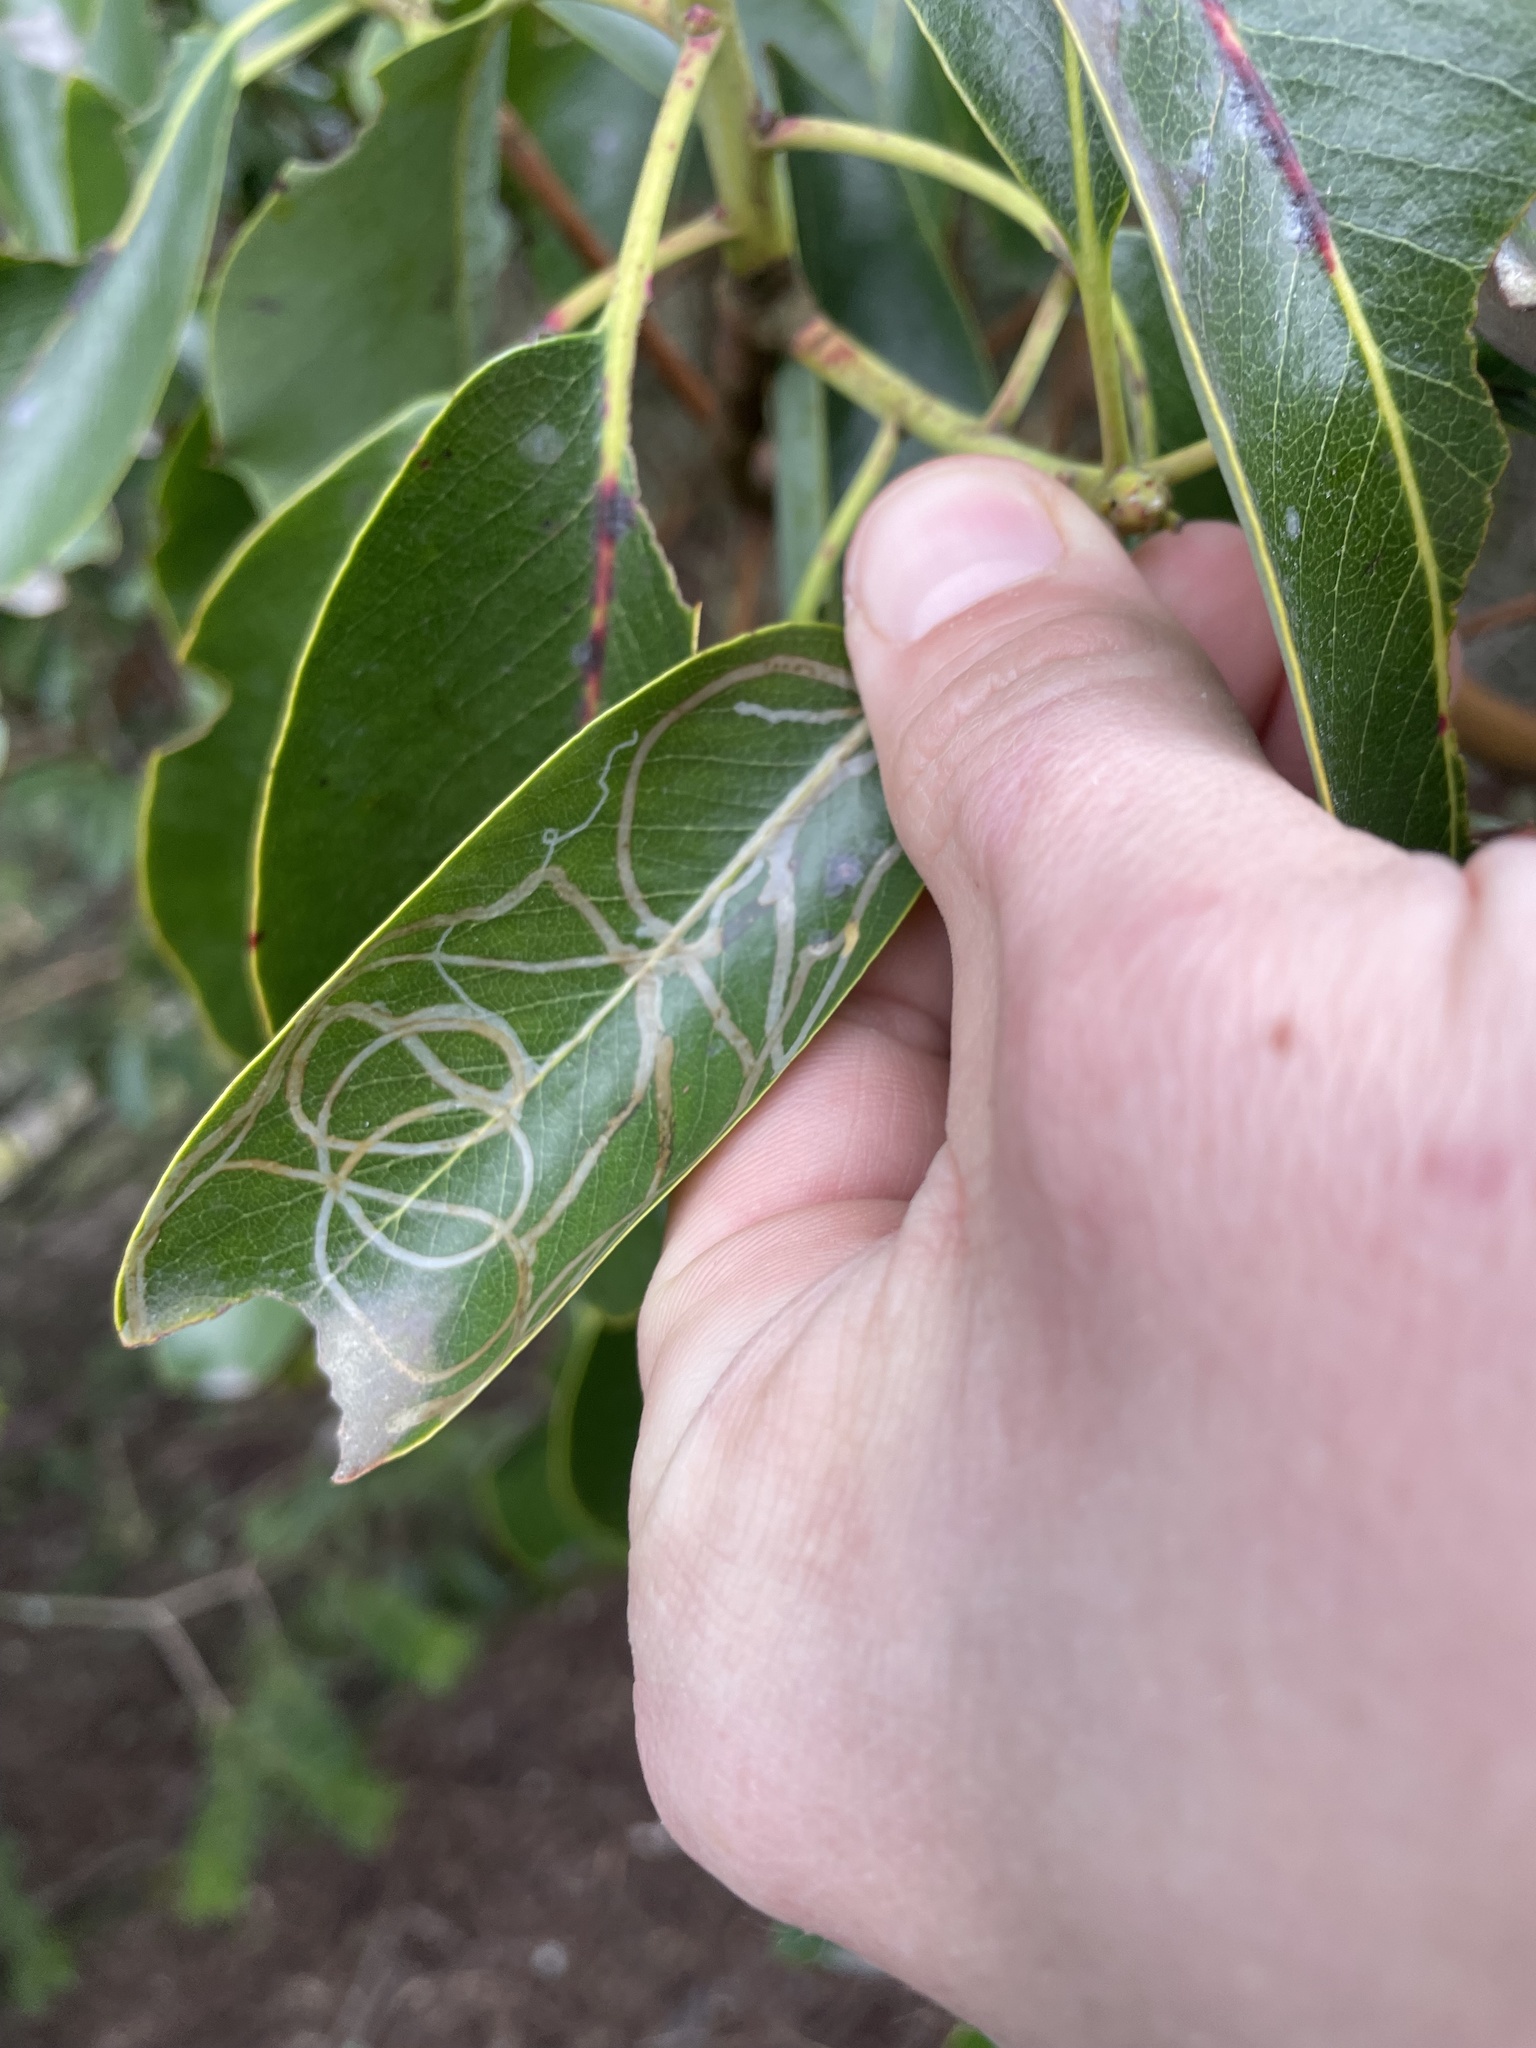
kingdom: Animalia
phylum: Arthropoda
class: Insecta
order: Lepidoptera
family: Gracillariidae
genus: Marmara
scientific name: Marmara arbutiella
